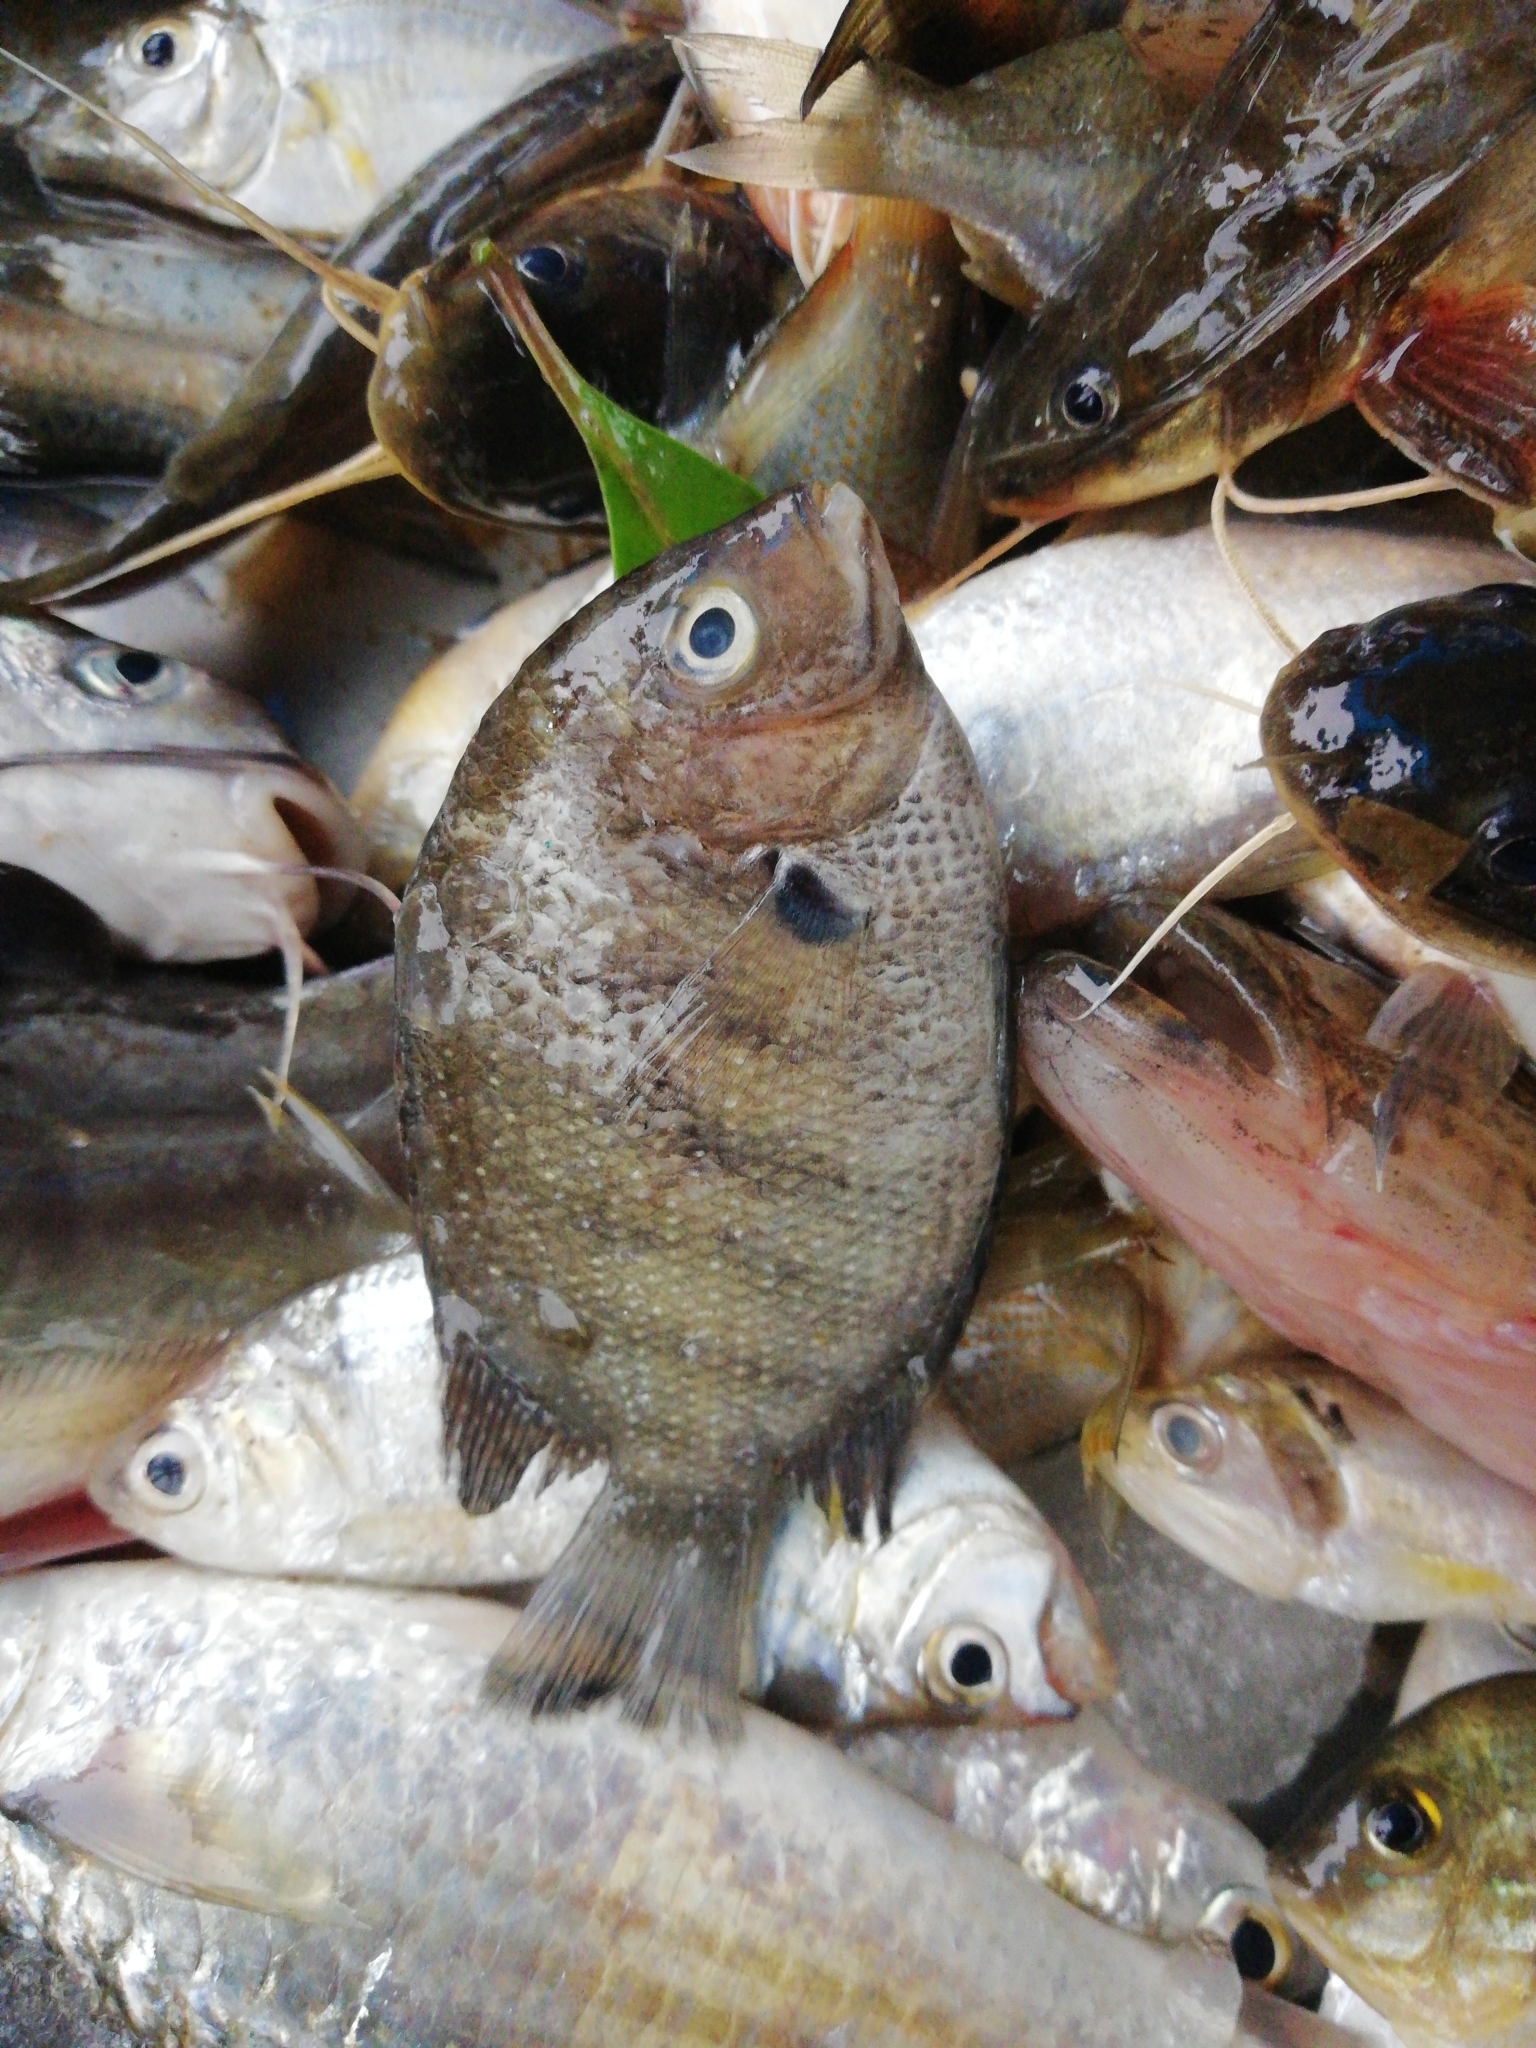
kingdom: Animalia
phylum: Chordata
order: Perciformes
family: Cichlidae
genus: Etroplus
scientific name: Etroplus suratensis
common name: Green chromide
